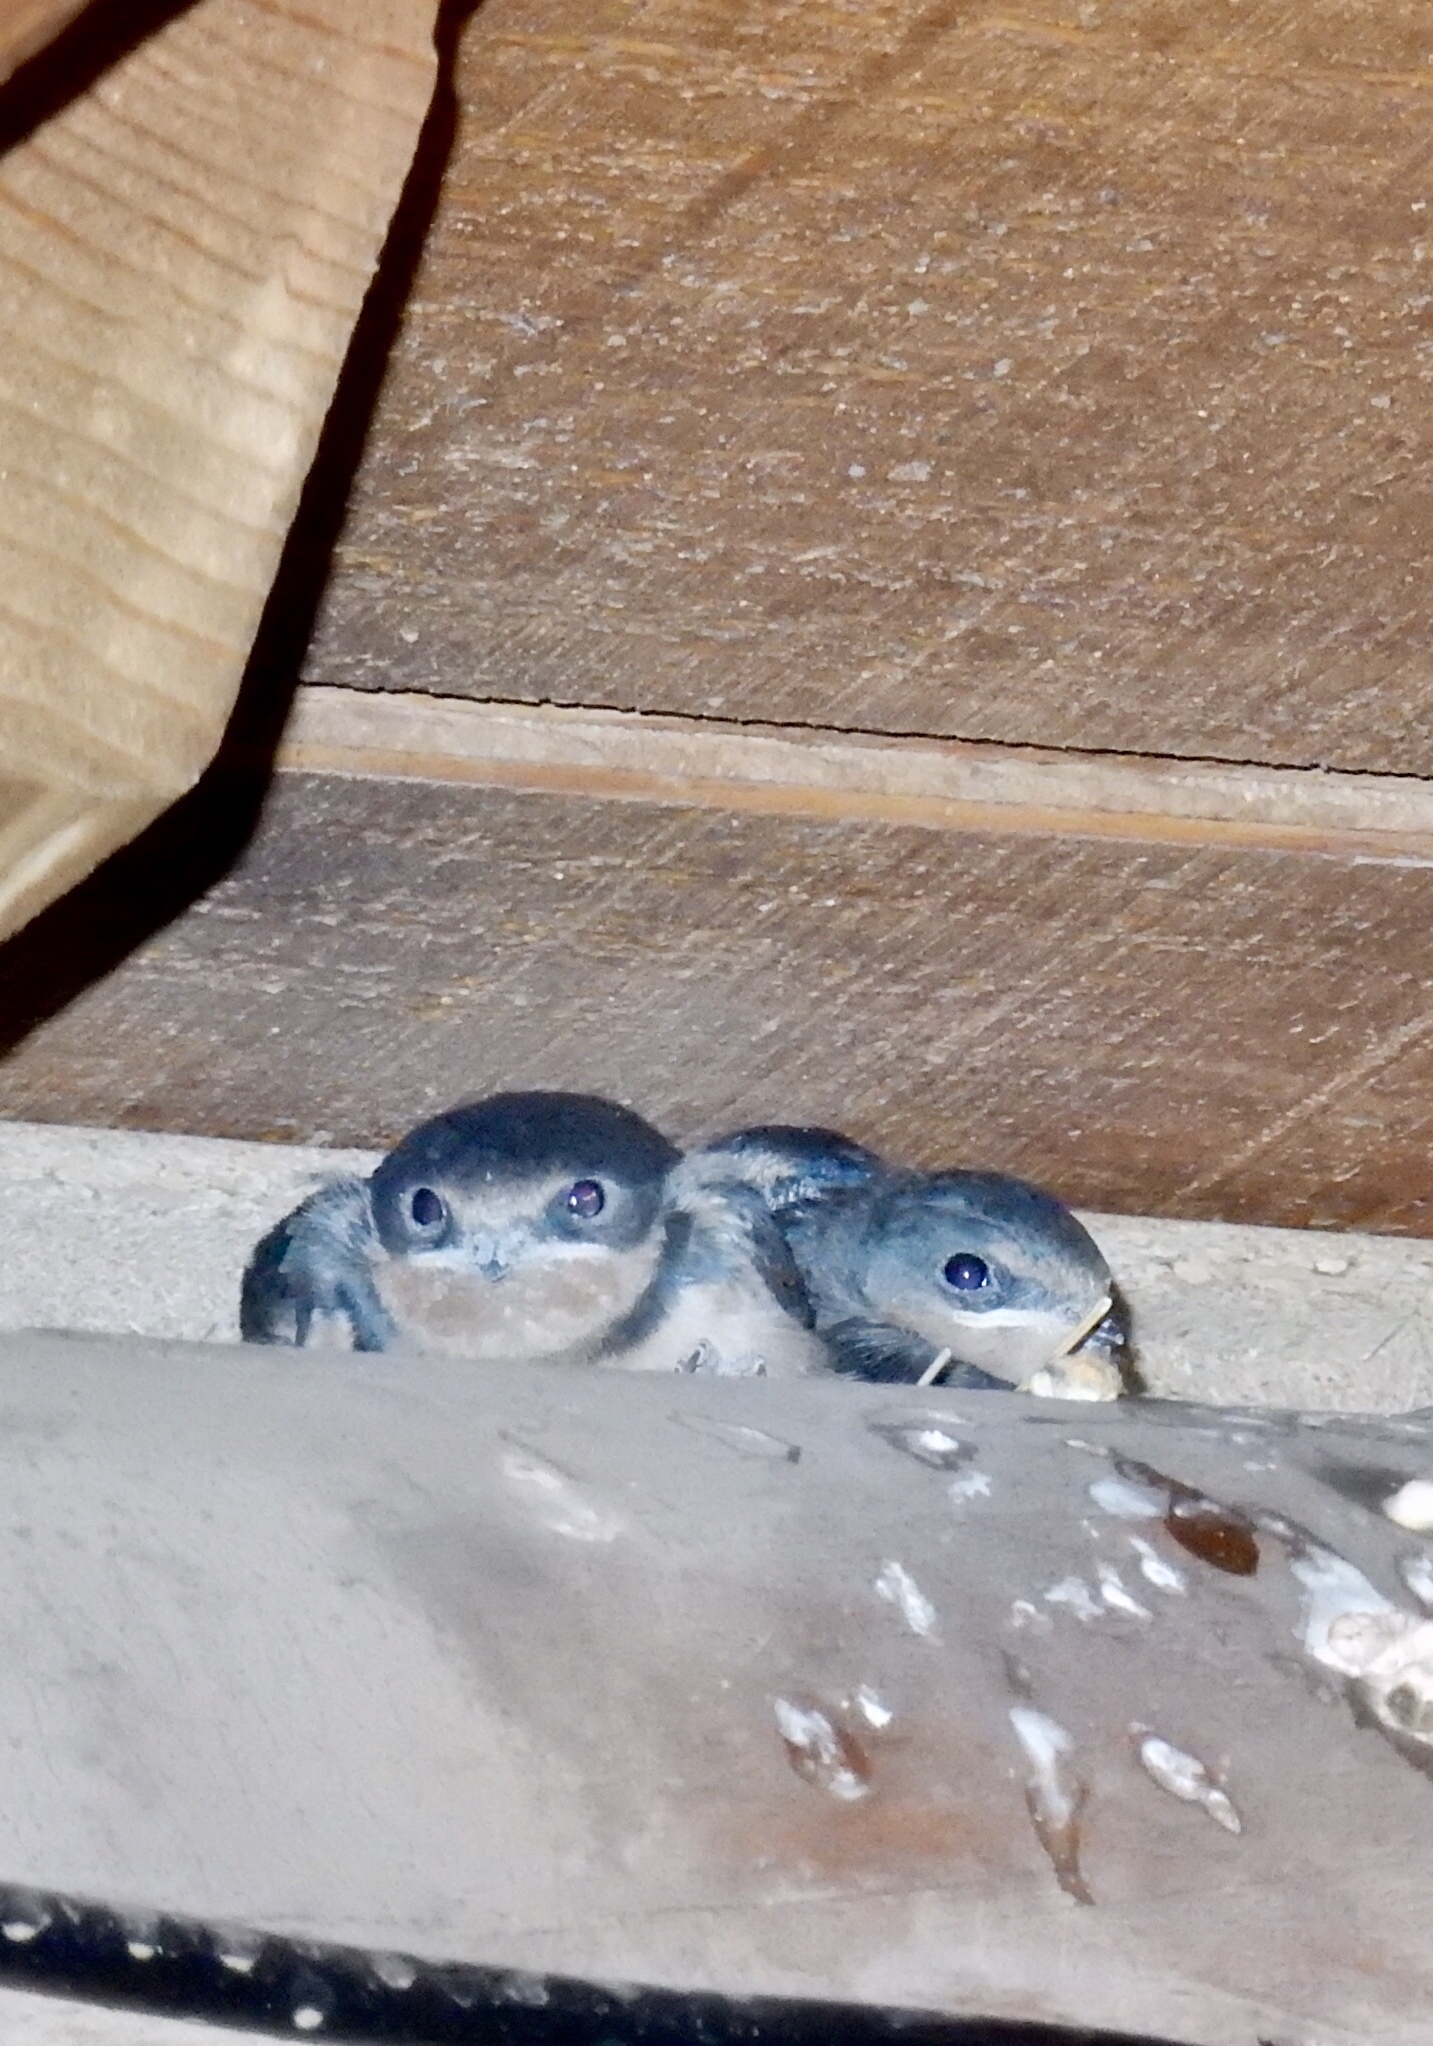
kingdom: Animalia
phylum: Chordata
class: Aves
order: Passeriformes
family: Hirundinidae
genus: Hirundo
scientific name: Hirundo rustica
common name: Barn swallow
